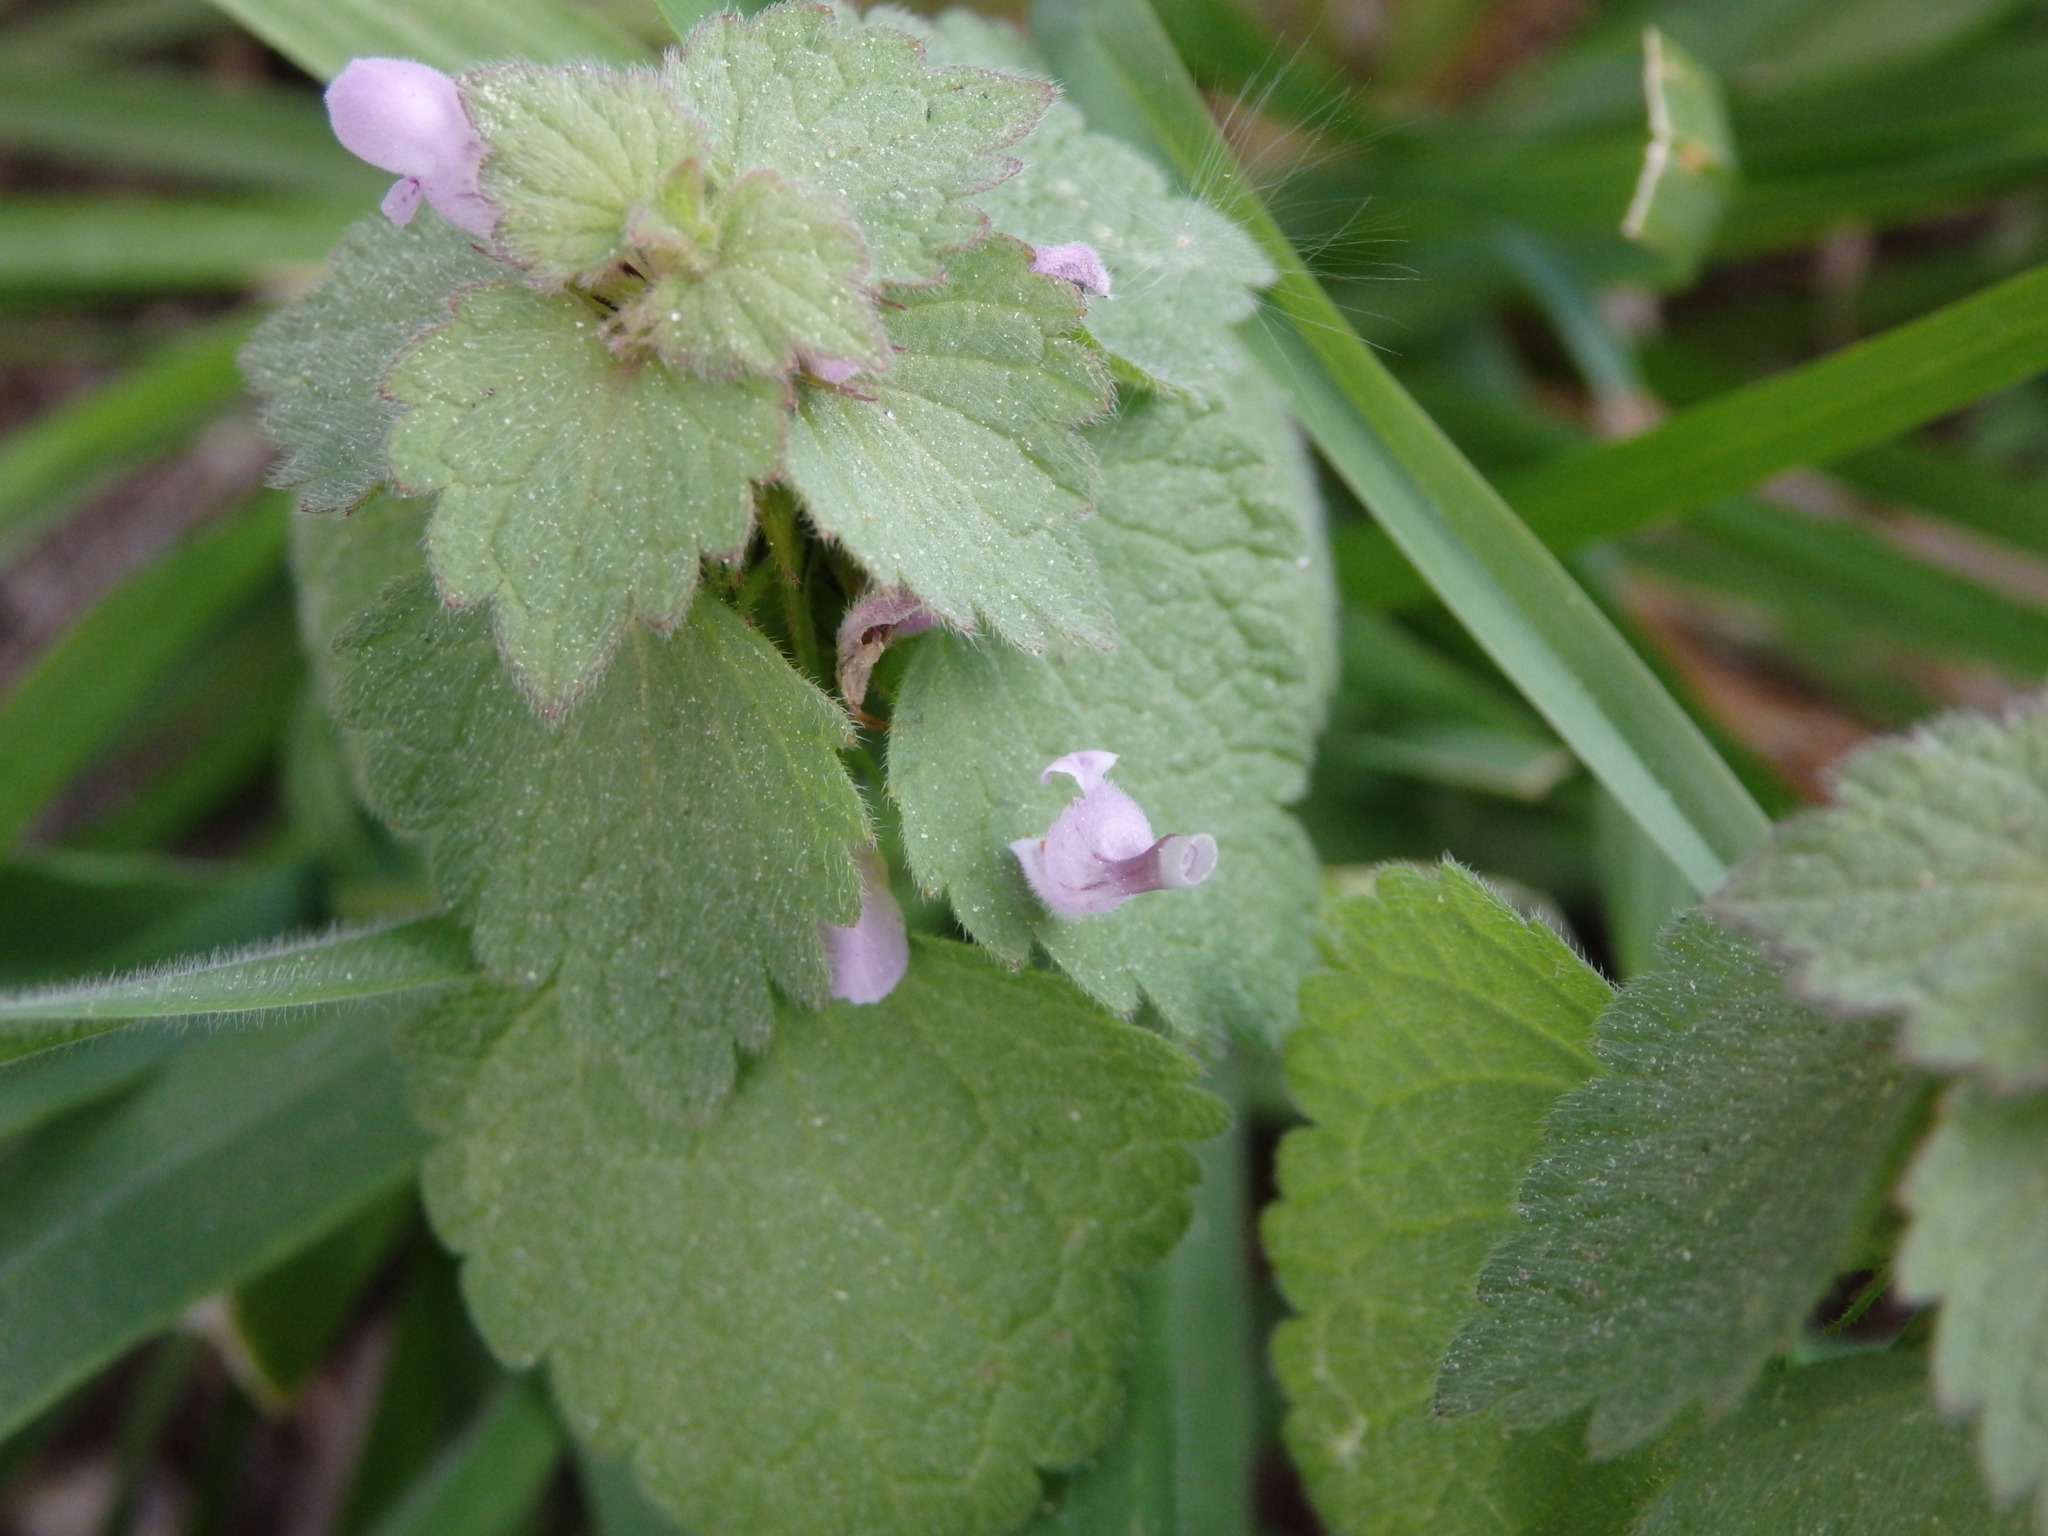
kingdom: Plantae
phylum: Tracheophyta
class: Magnoliopsida
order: Lamiales
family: Lamiaceae
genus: Lamium
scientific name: Lamium purpureum
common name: Red dead-nettle
